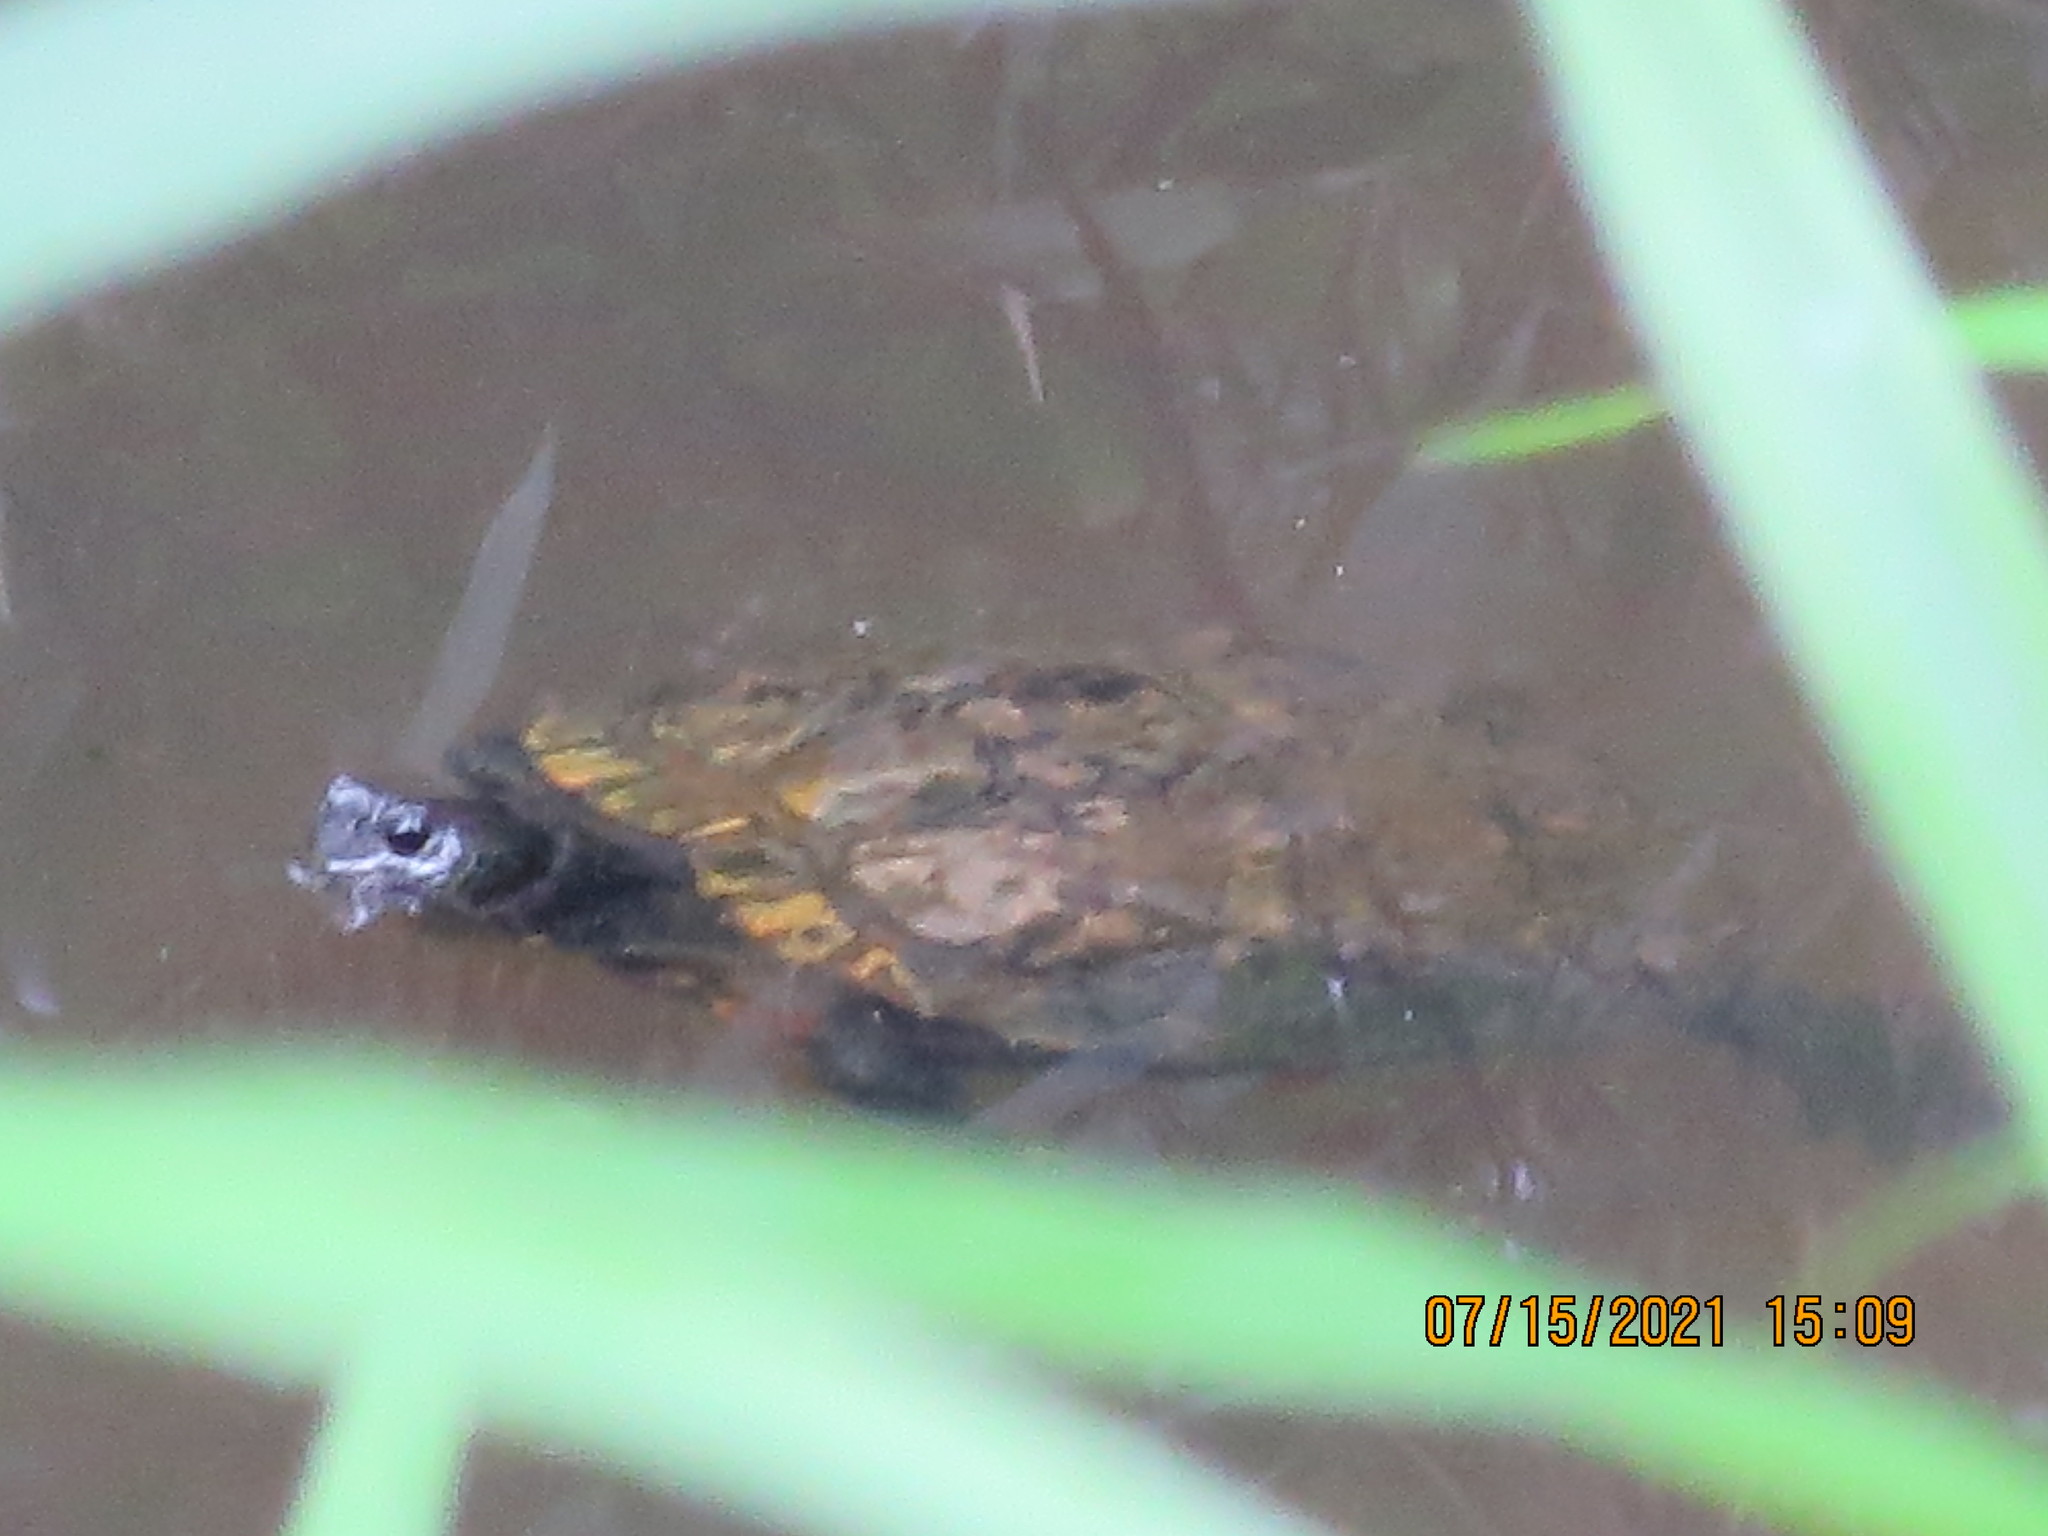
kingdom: Animalia
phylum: Chordata
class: Testudines
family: Emydidae
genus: Trachemys
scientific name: Trachemys scripta
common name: Slider
